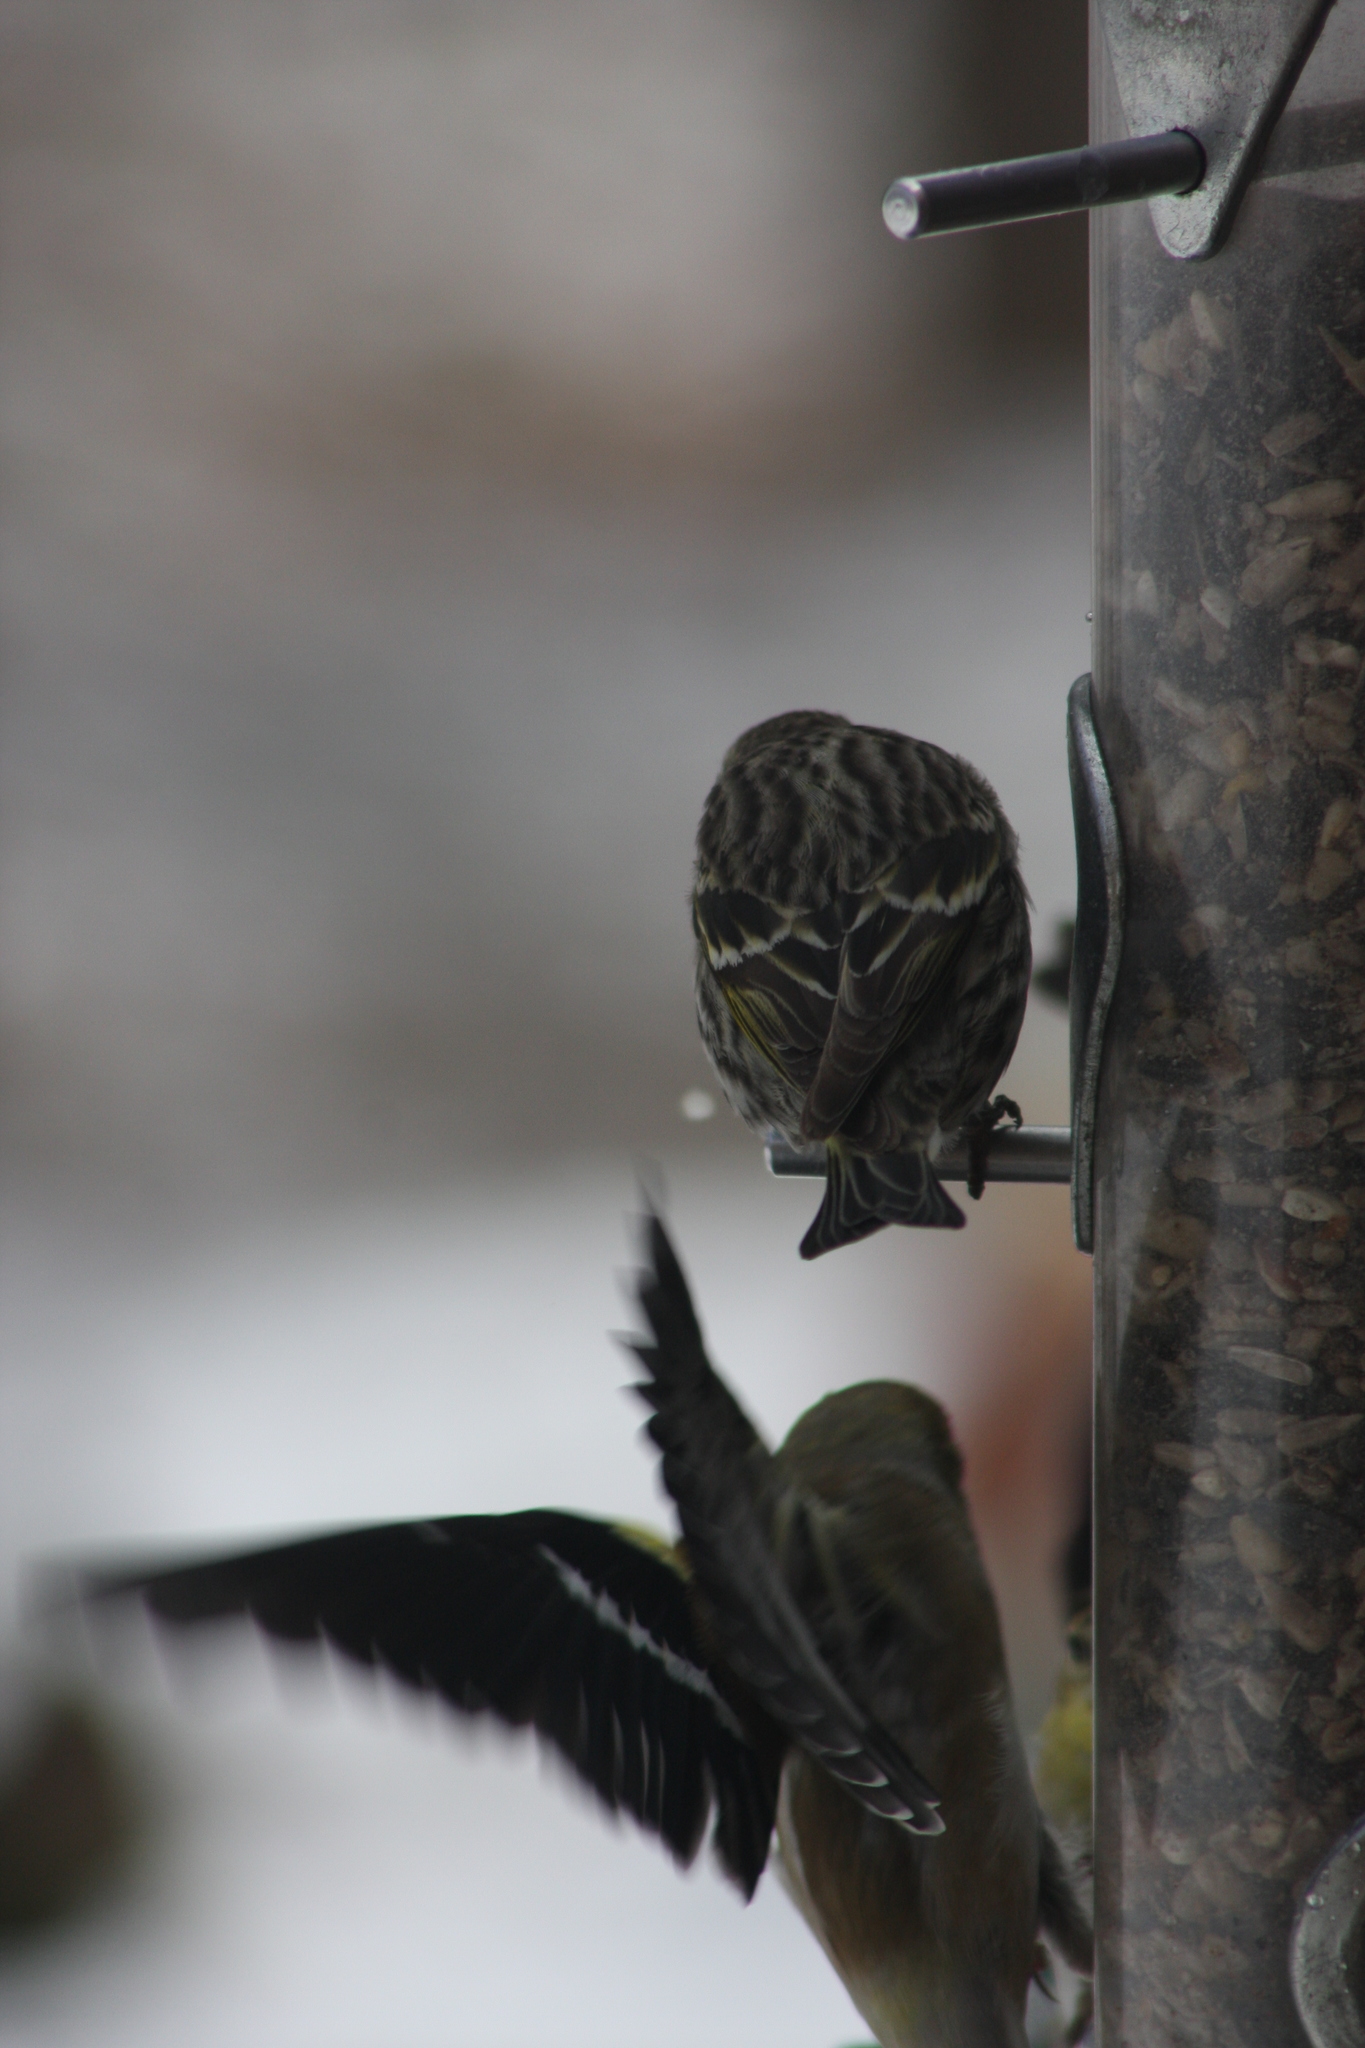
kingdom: Animalia
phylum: Chordata
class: Aves
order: Passeriformes
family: Fringillidae
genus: Spinus
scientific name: Spinus pinus
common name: Pine siskin
